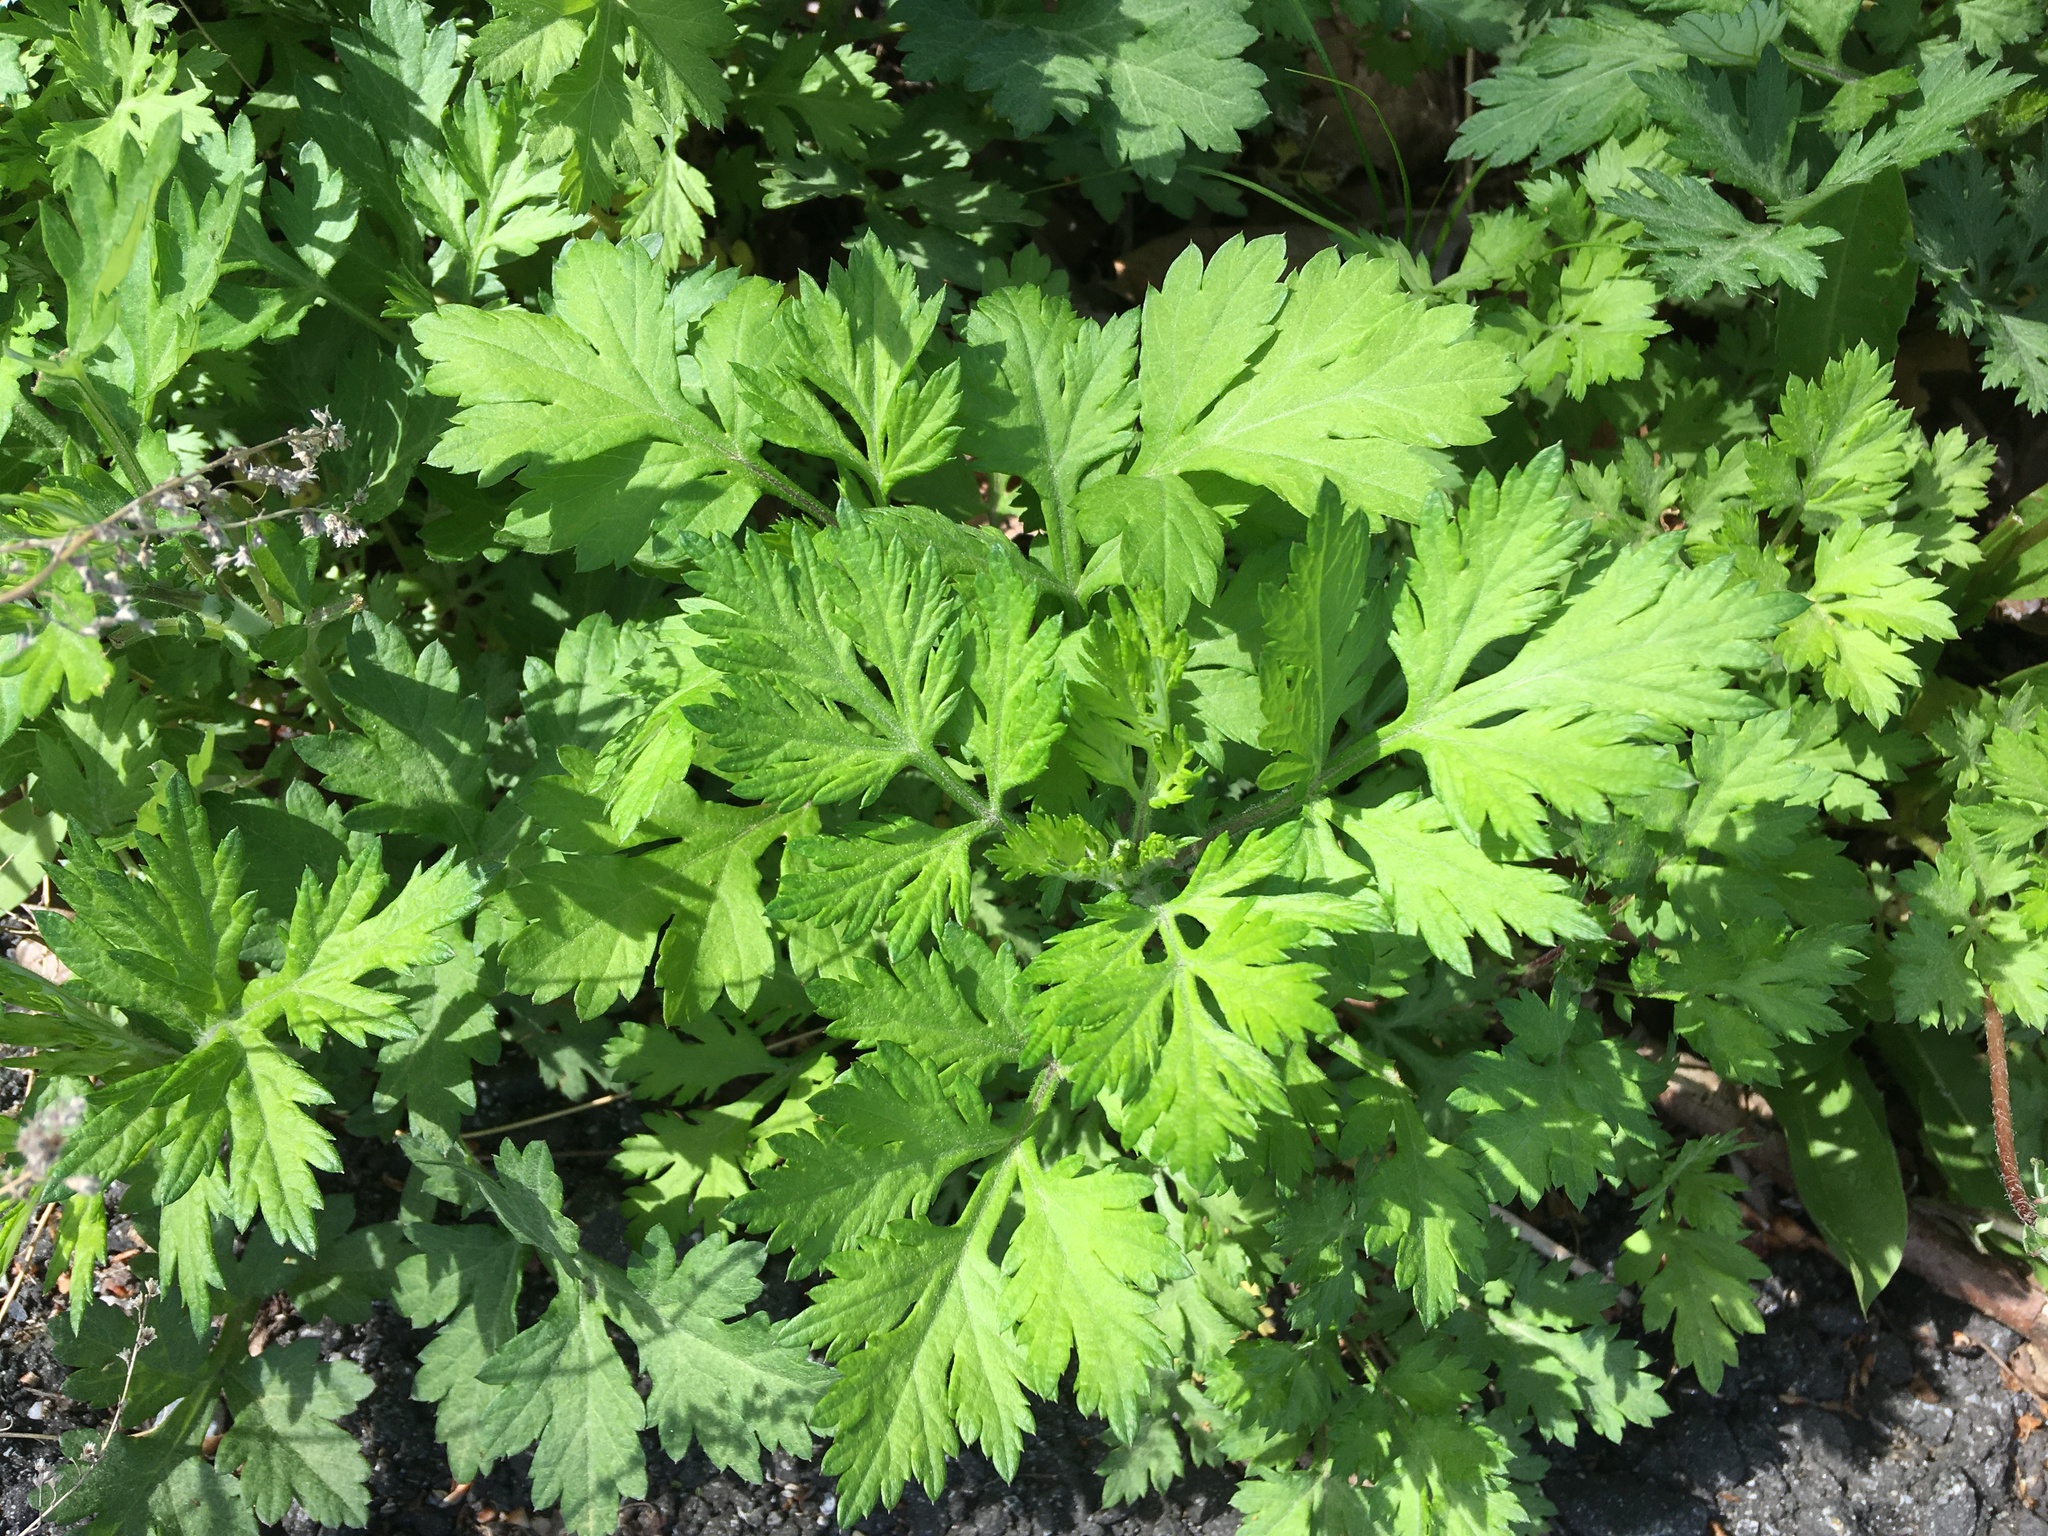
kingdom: Plantae
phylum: Tracheophyta
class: Magnoliopsida
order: Asterales
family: Asteraceae
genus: Artemisia
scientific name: Artemisia vulgaris
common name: Mugwort
